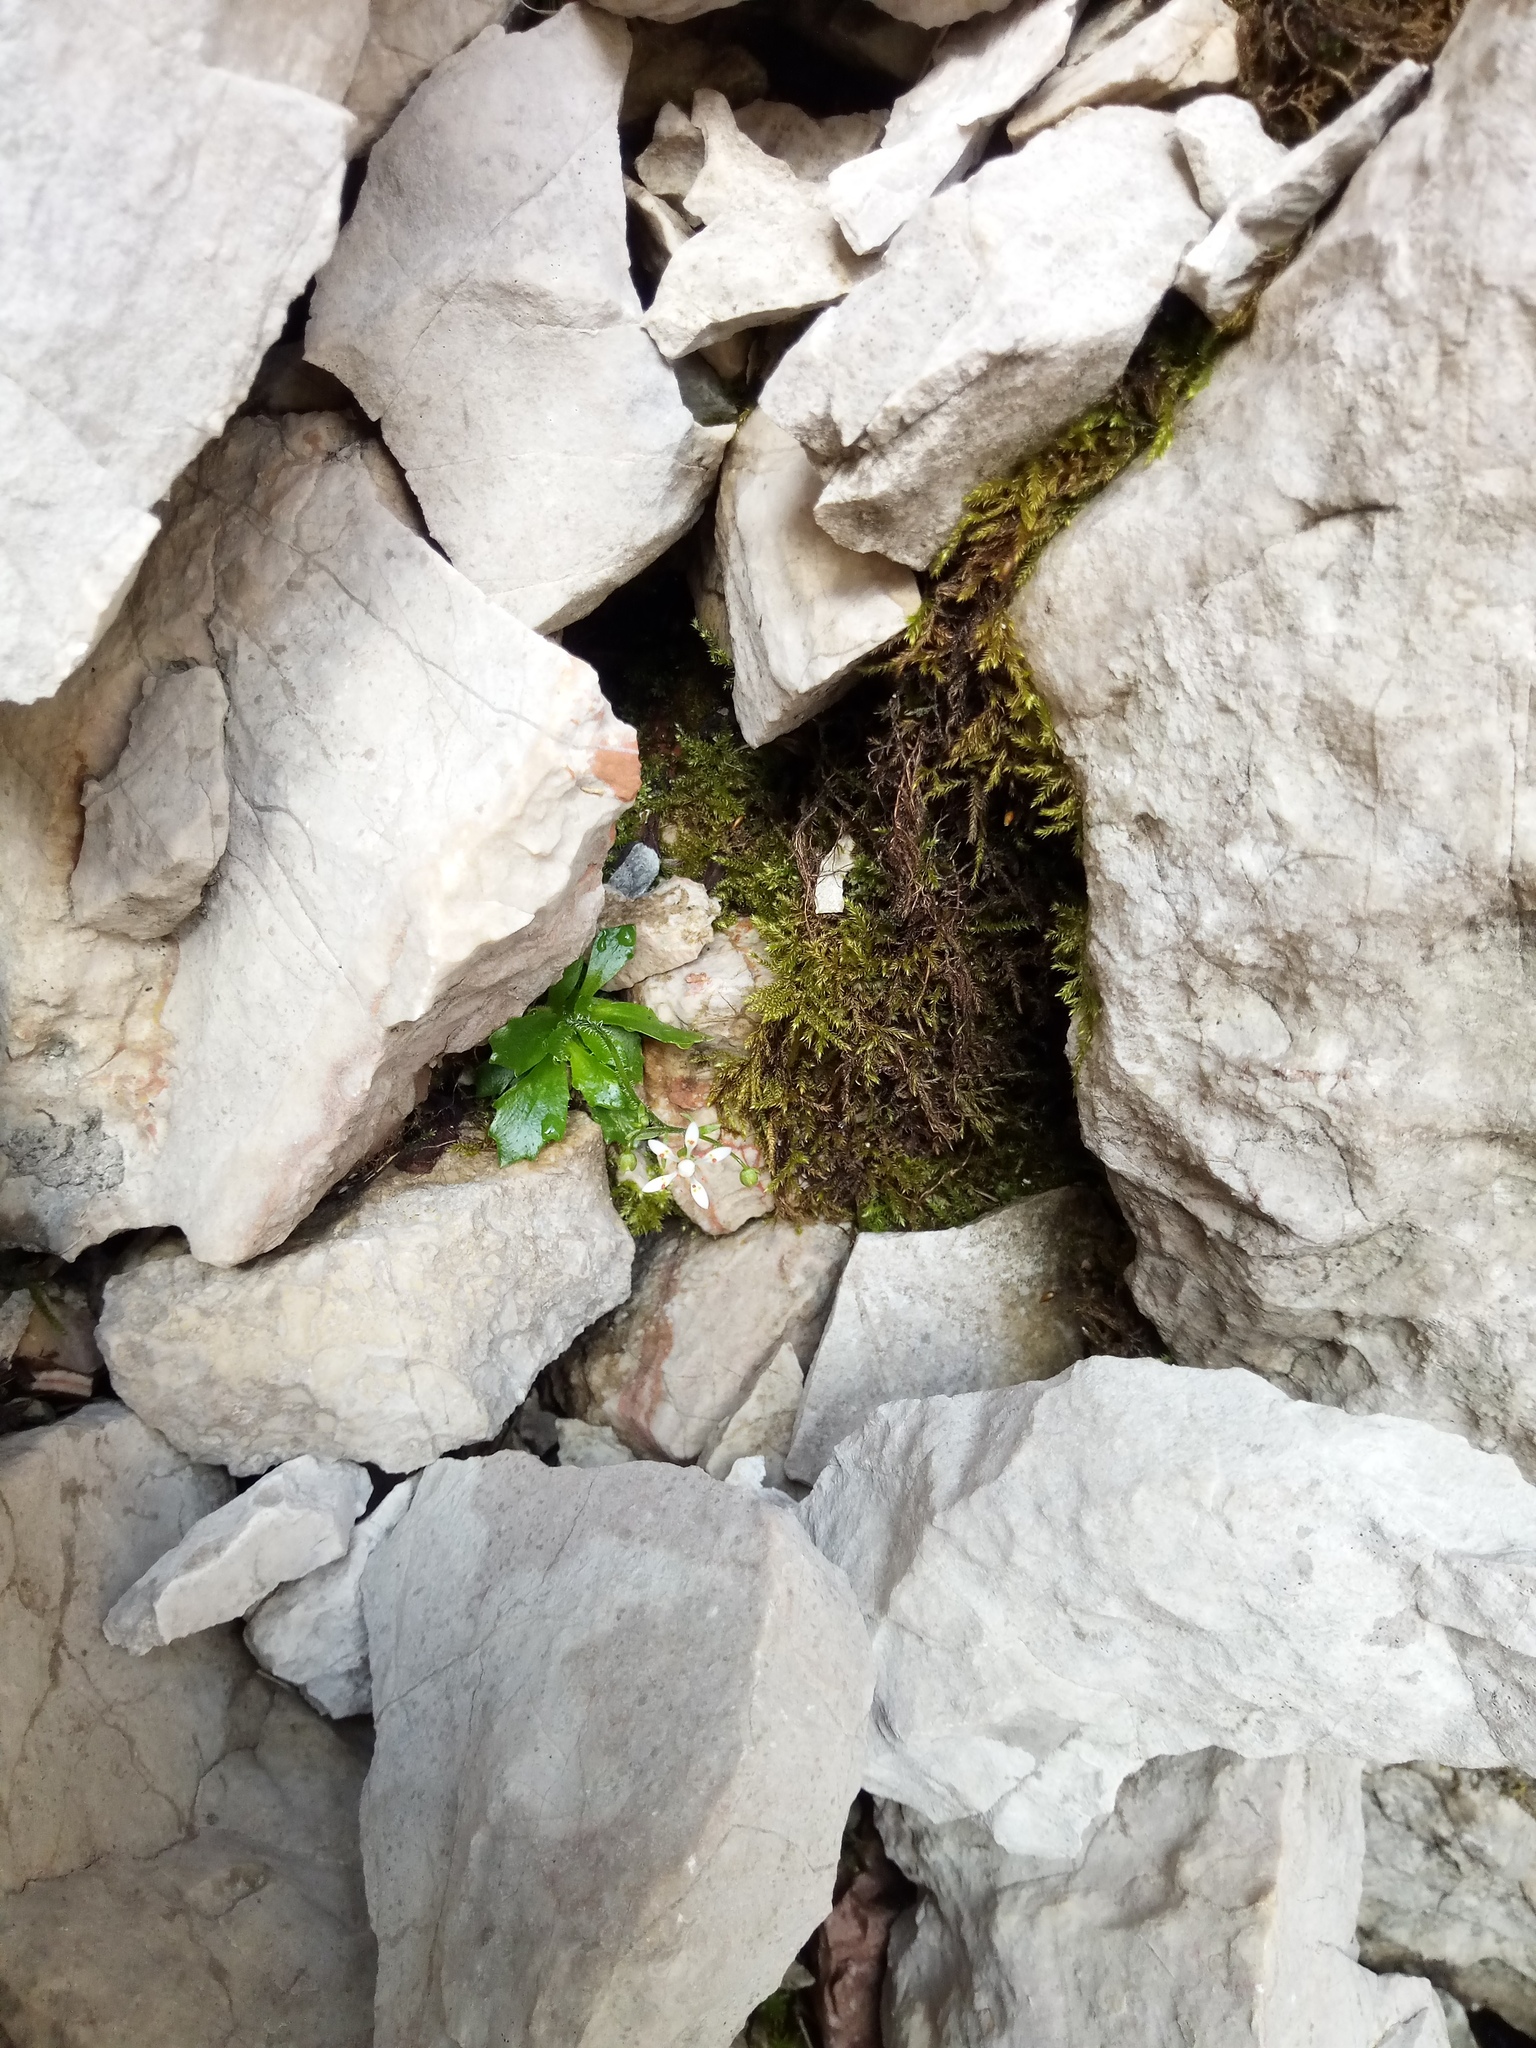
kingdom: Plantae
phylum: Tracheophyta
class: Magnoliopsida
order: Saxifragales
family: Saxifragaceae
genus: Micranthes
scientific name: Micranthes stellaris
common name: Starry saxifrage
